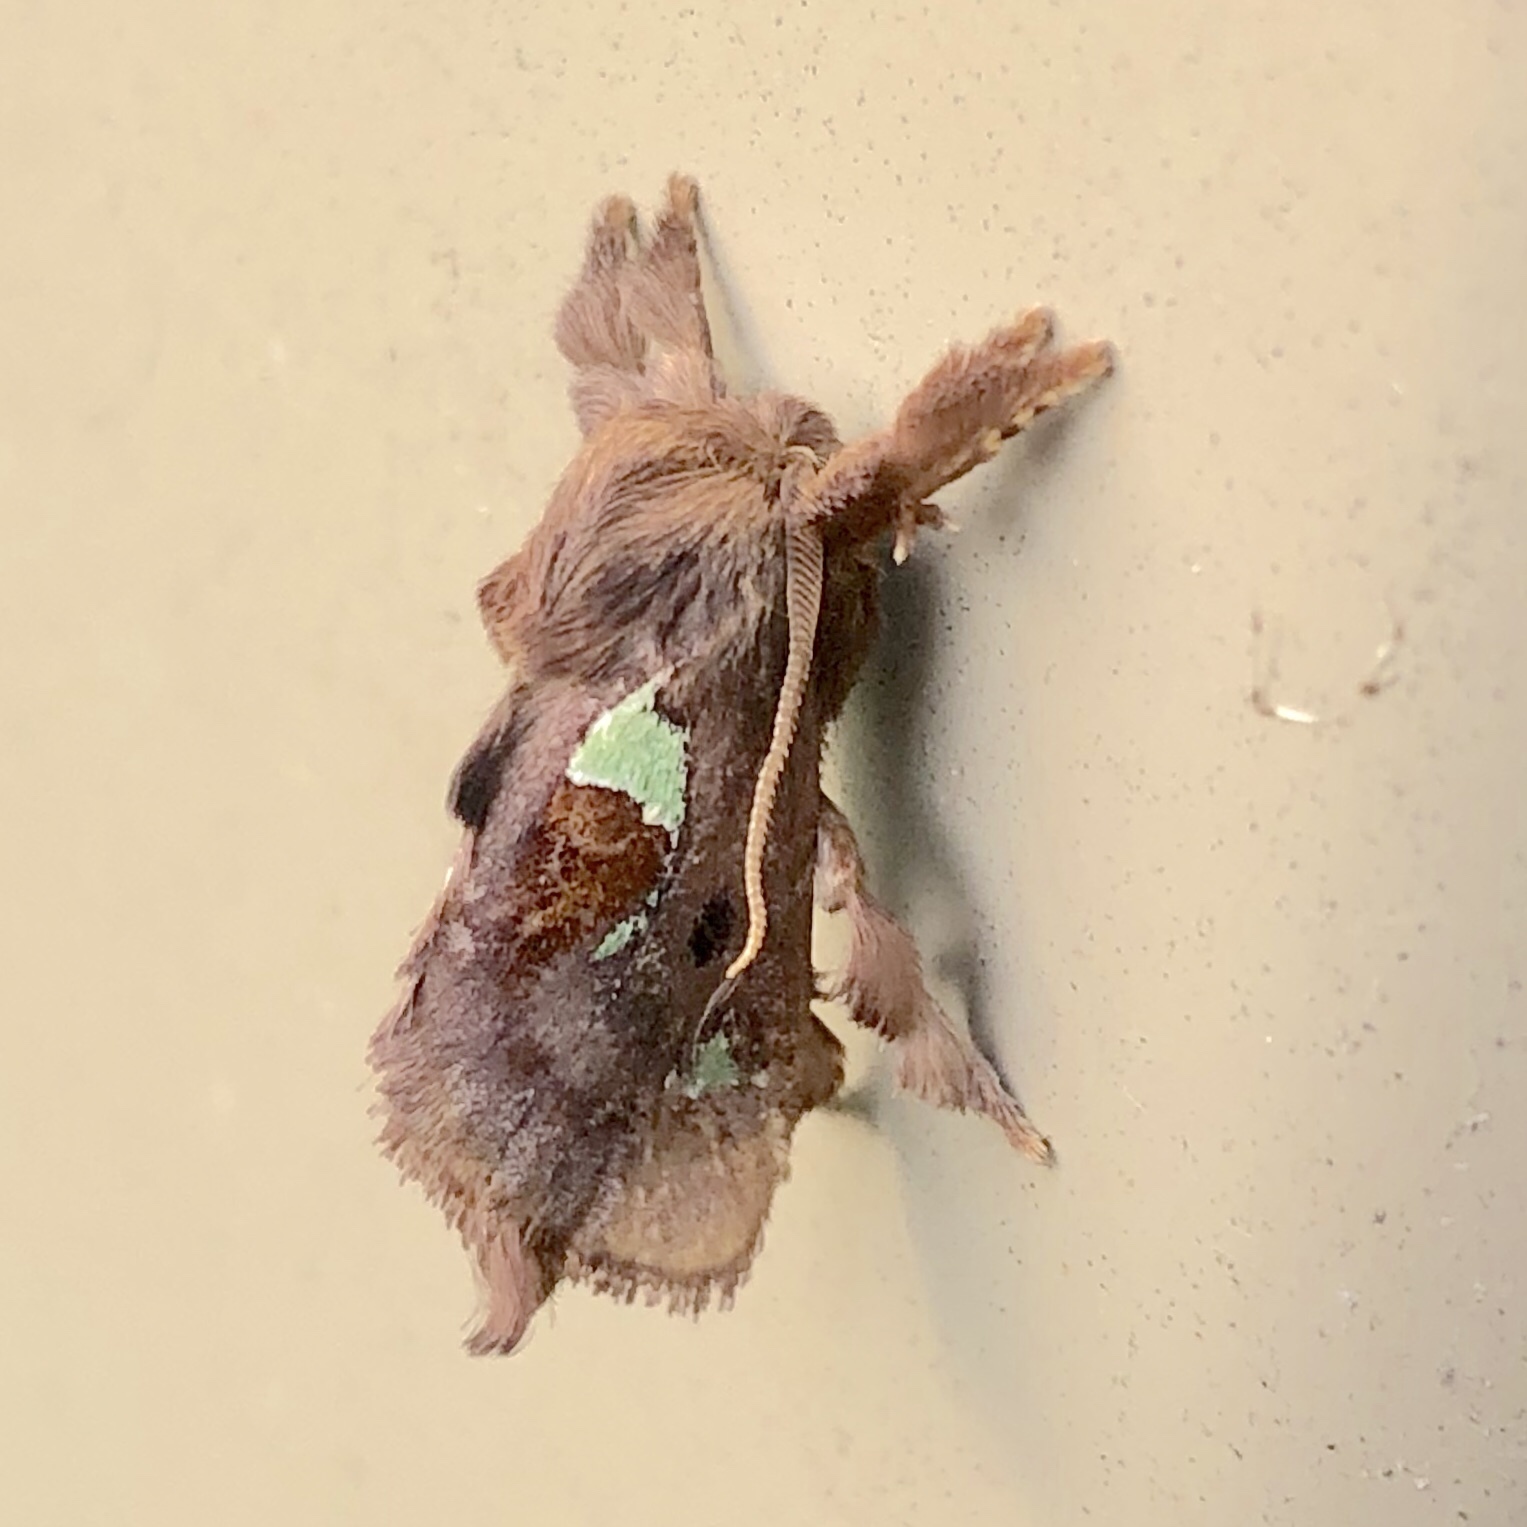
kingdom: Animalia
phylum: Arthropoda
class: Insecta
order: Lepidoptera
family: Limacodidae
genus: Euclea
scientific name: Euclea delphinii
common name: Spiny oak-slug moth
